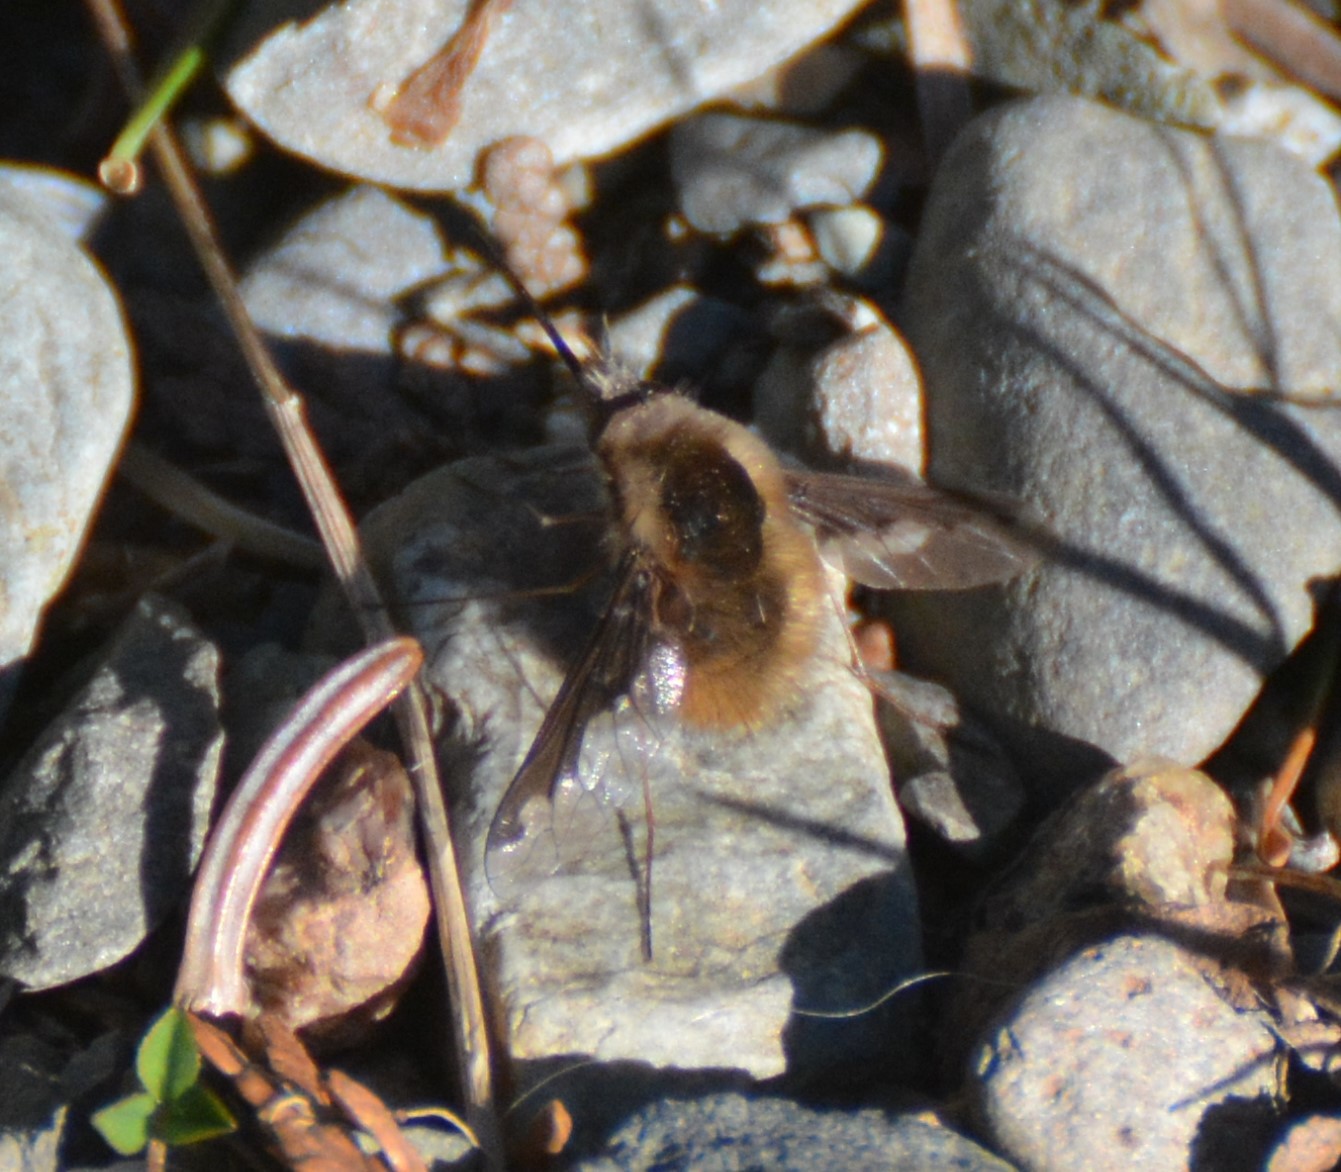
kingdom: Animalia
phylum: Arthropoda
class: Insecta
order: Diptera
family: Bombyliidae
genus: Bombylius
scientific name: Bombylius major
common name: Bee fly
